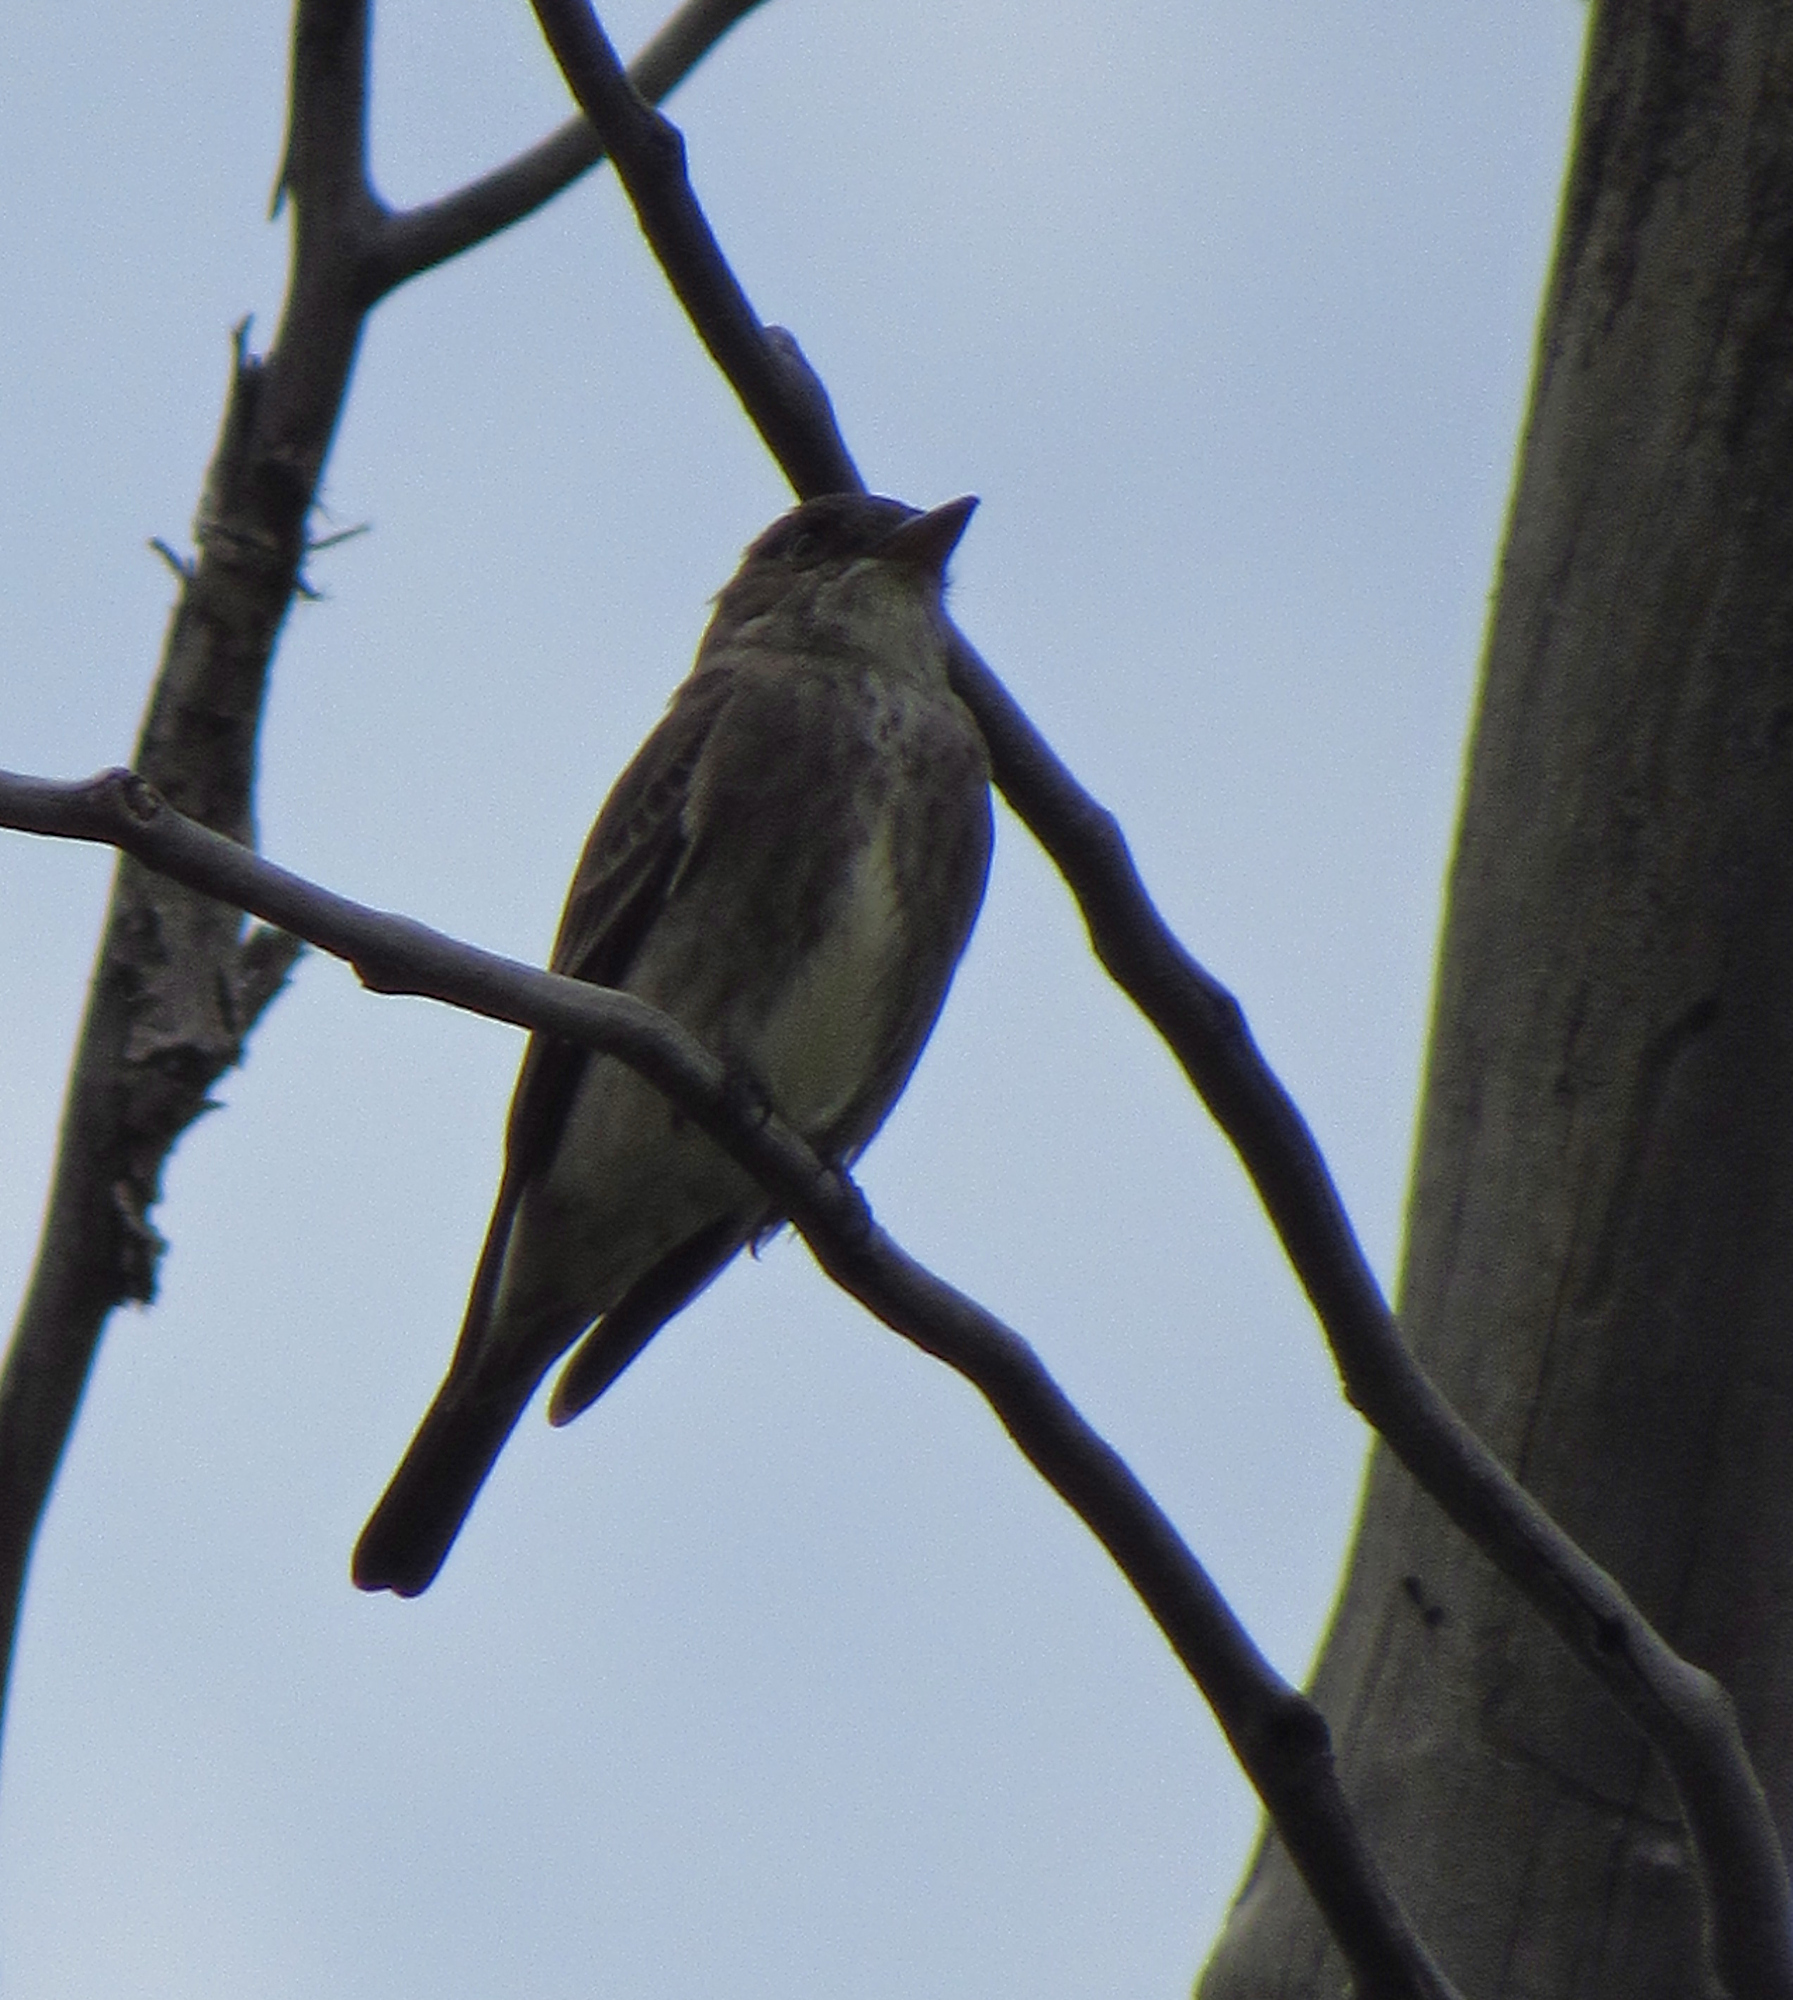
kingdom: Animalia
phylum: Chordata
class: Aves
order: Passeriformes
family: Tyrannidae
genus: Contopus
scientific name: Contopus cooperi
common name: Olive-sided flycatcher
